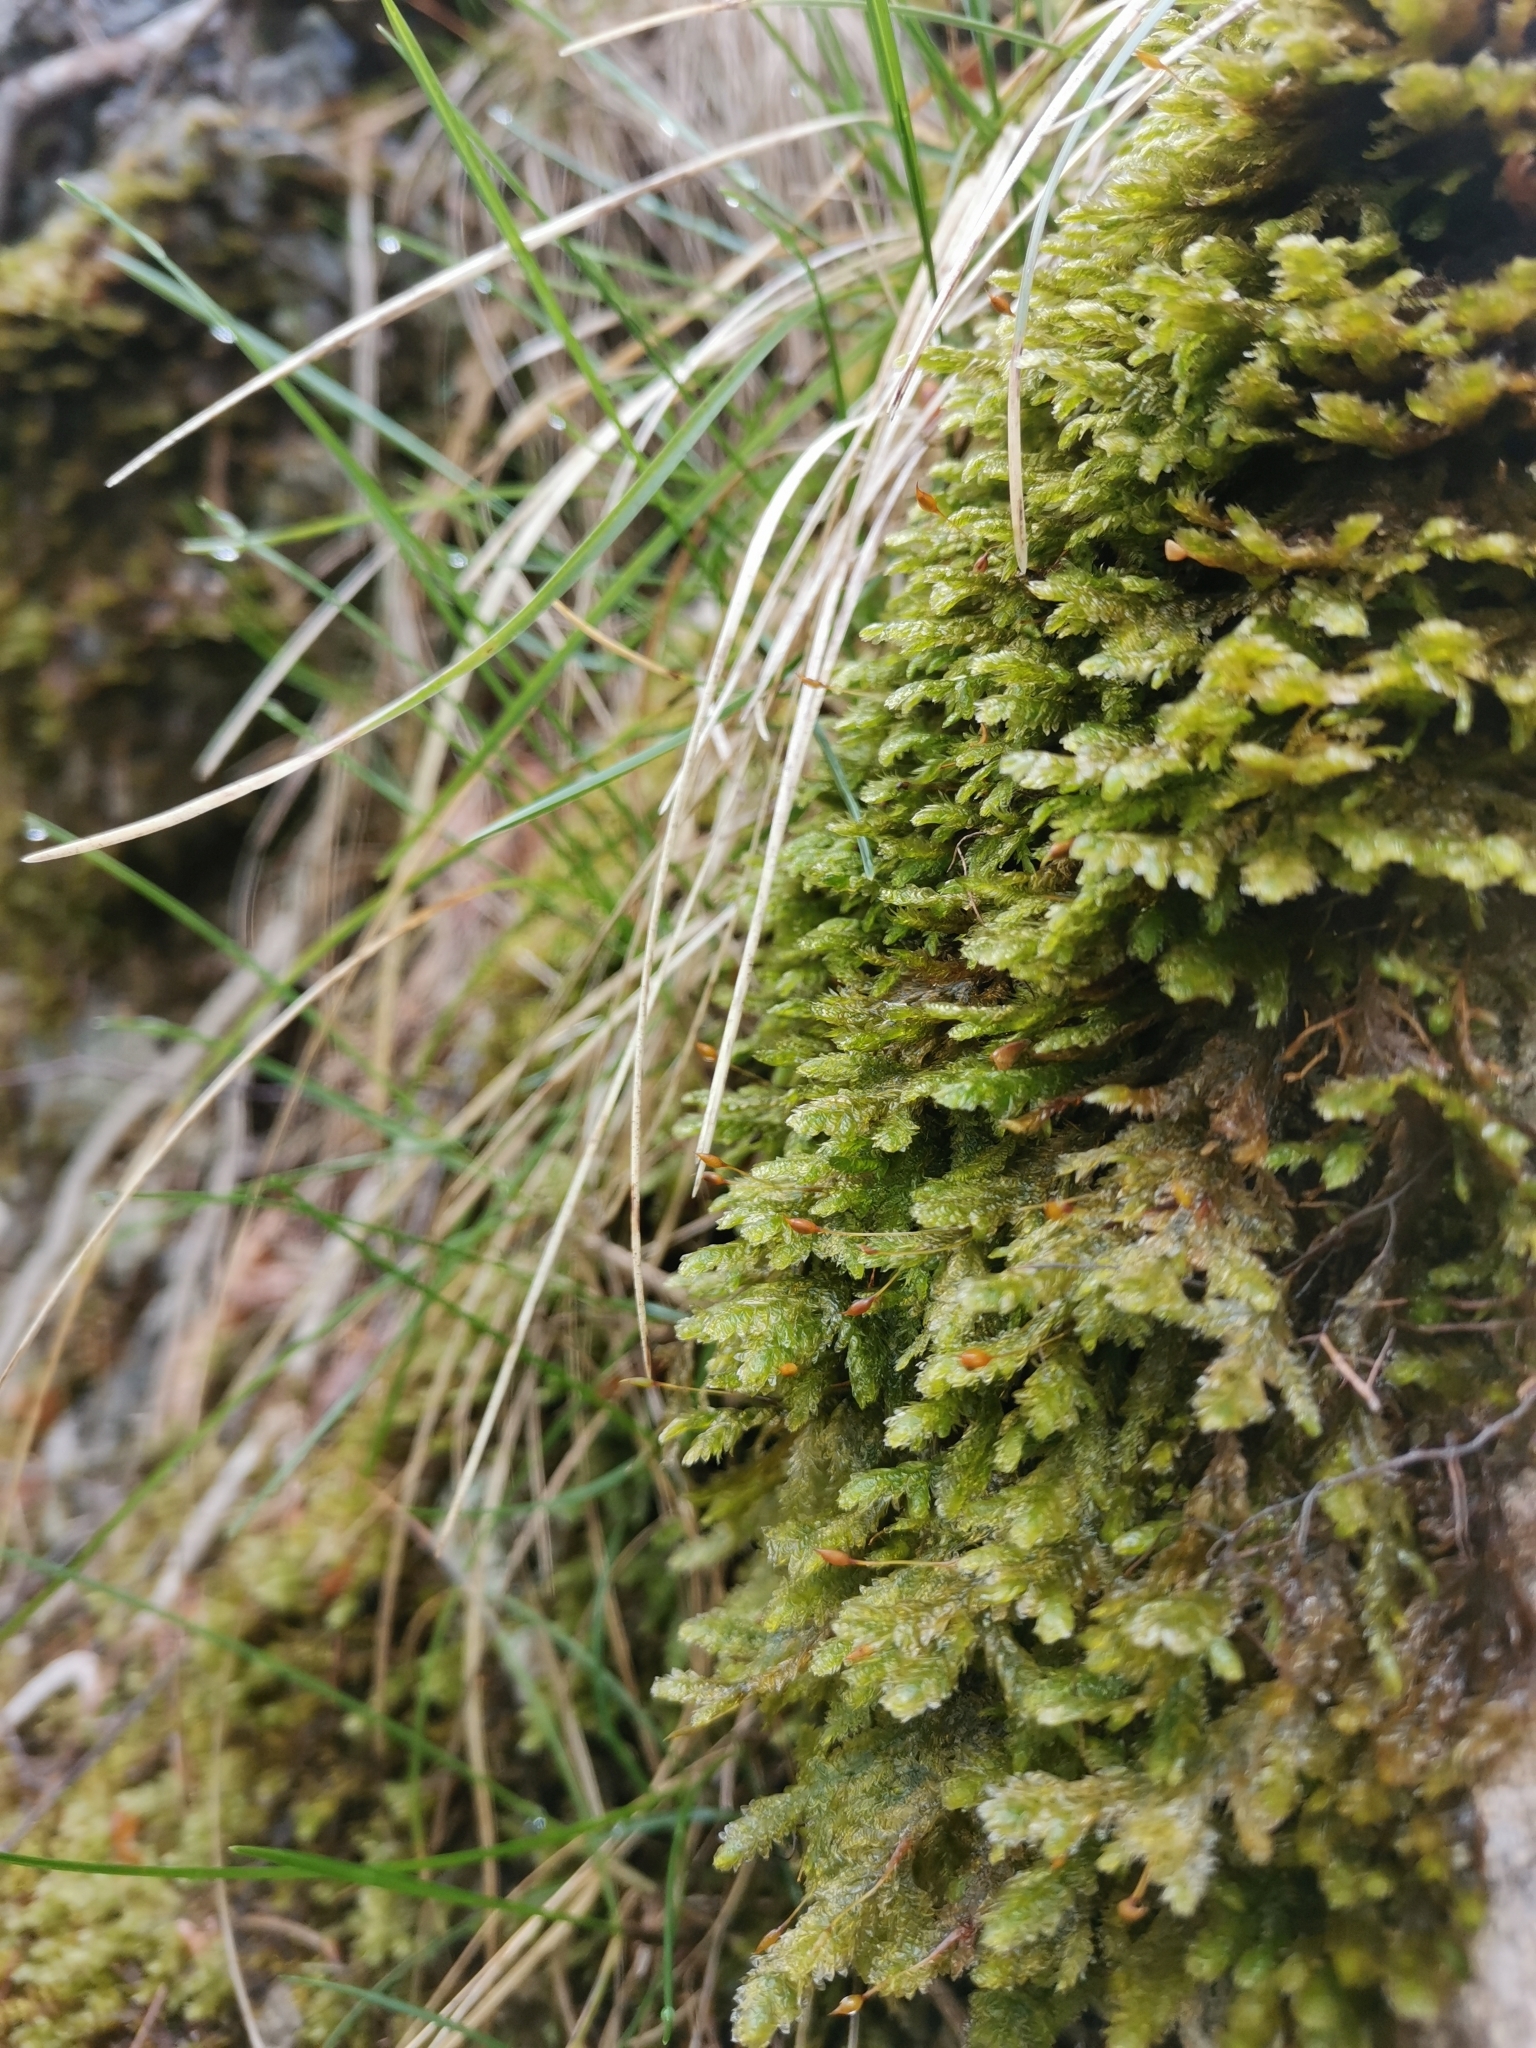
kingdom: Plantae
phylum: Bryophyta
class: Bryopsida
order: Hypnales
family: Neckeraceae
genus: Exsertotheca
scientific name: Exsertotheca crispa
